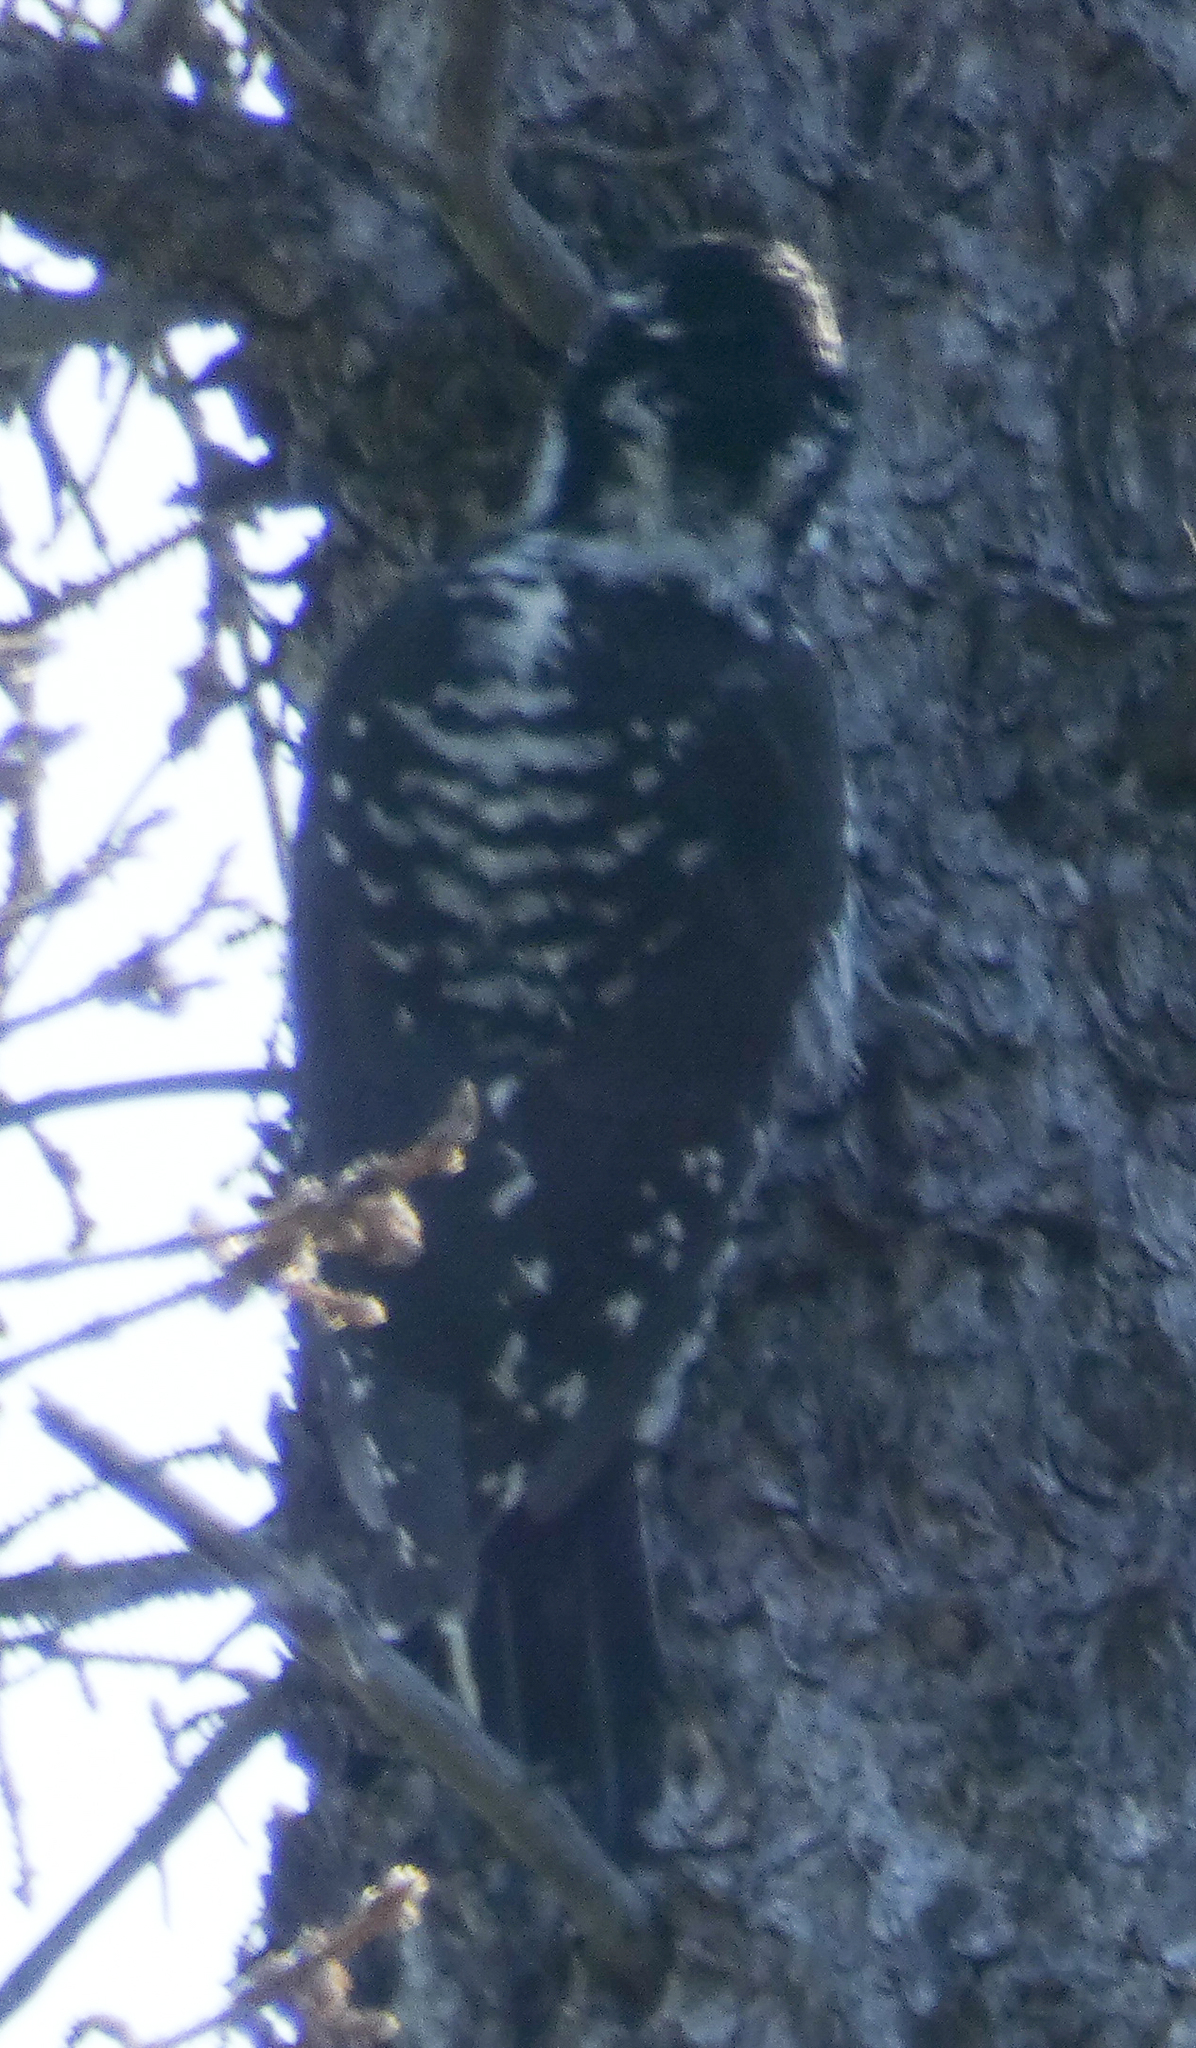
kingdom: Animalia
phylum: Chordata
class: Aves
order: Piciformes
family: Picidae
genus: Picoides
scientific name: Picoides dorsalis
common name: American three-toed woodpecker
